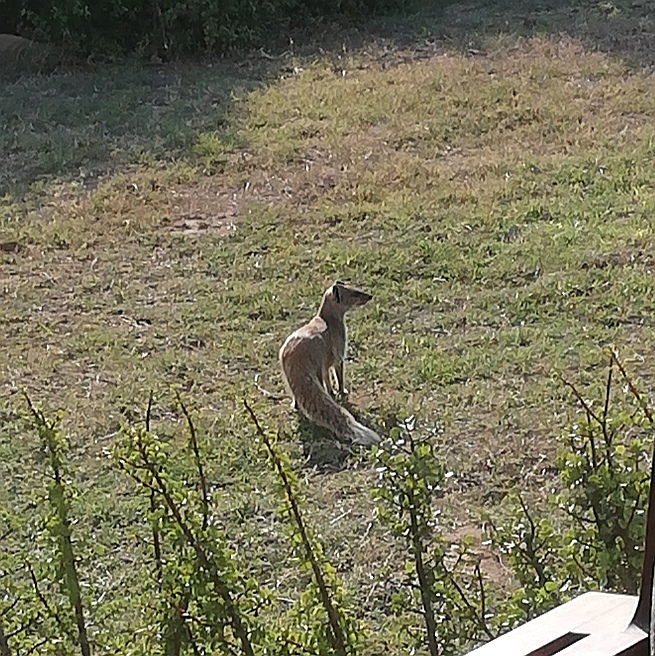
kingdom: Animalia
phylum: Chordata
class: Mammalia
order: Carnivora
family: Herpestidae
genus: Cynictis
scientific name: Cynictis penicillata
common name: Yellow mongoose
